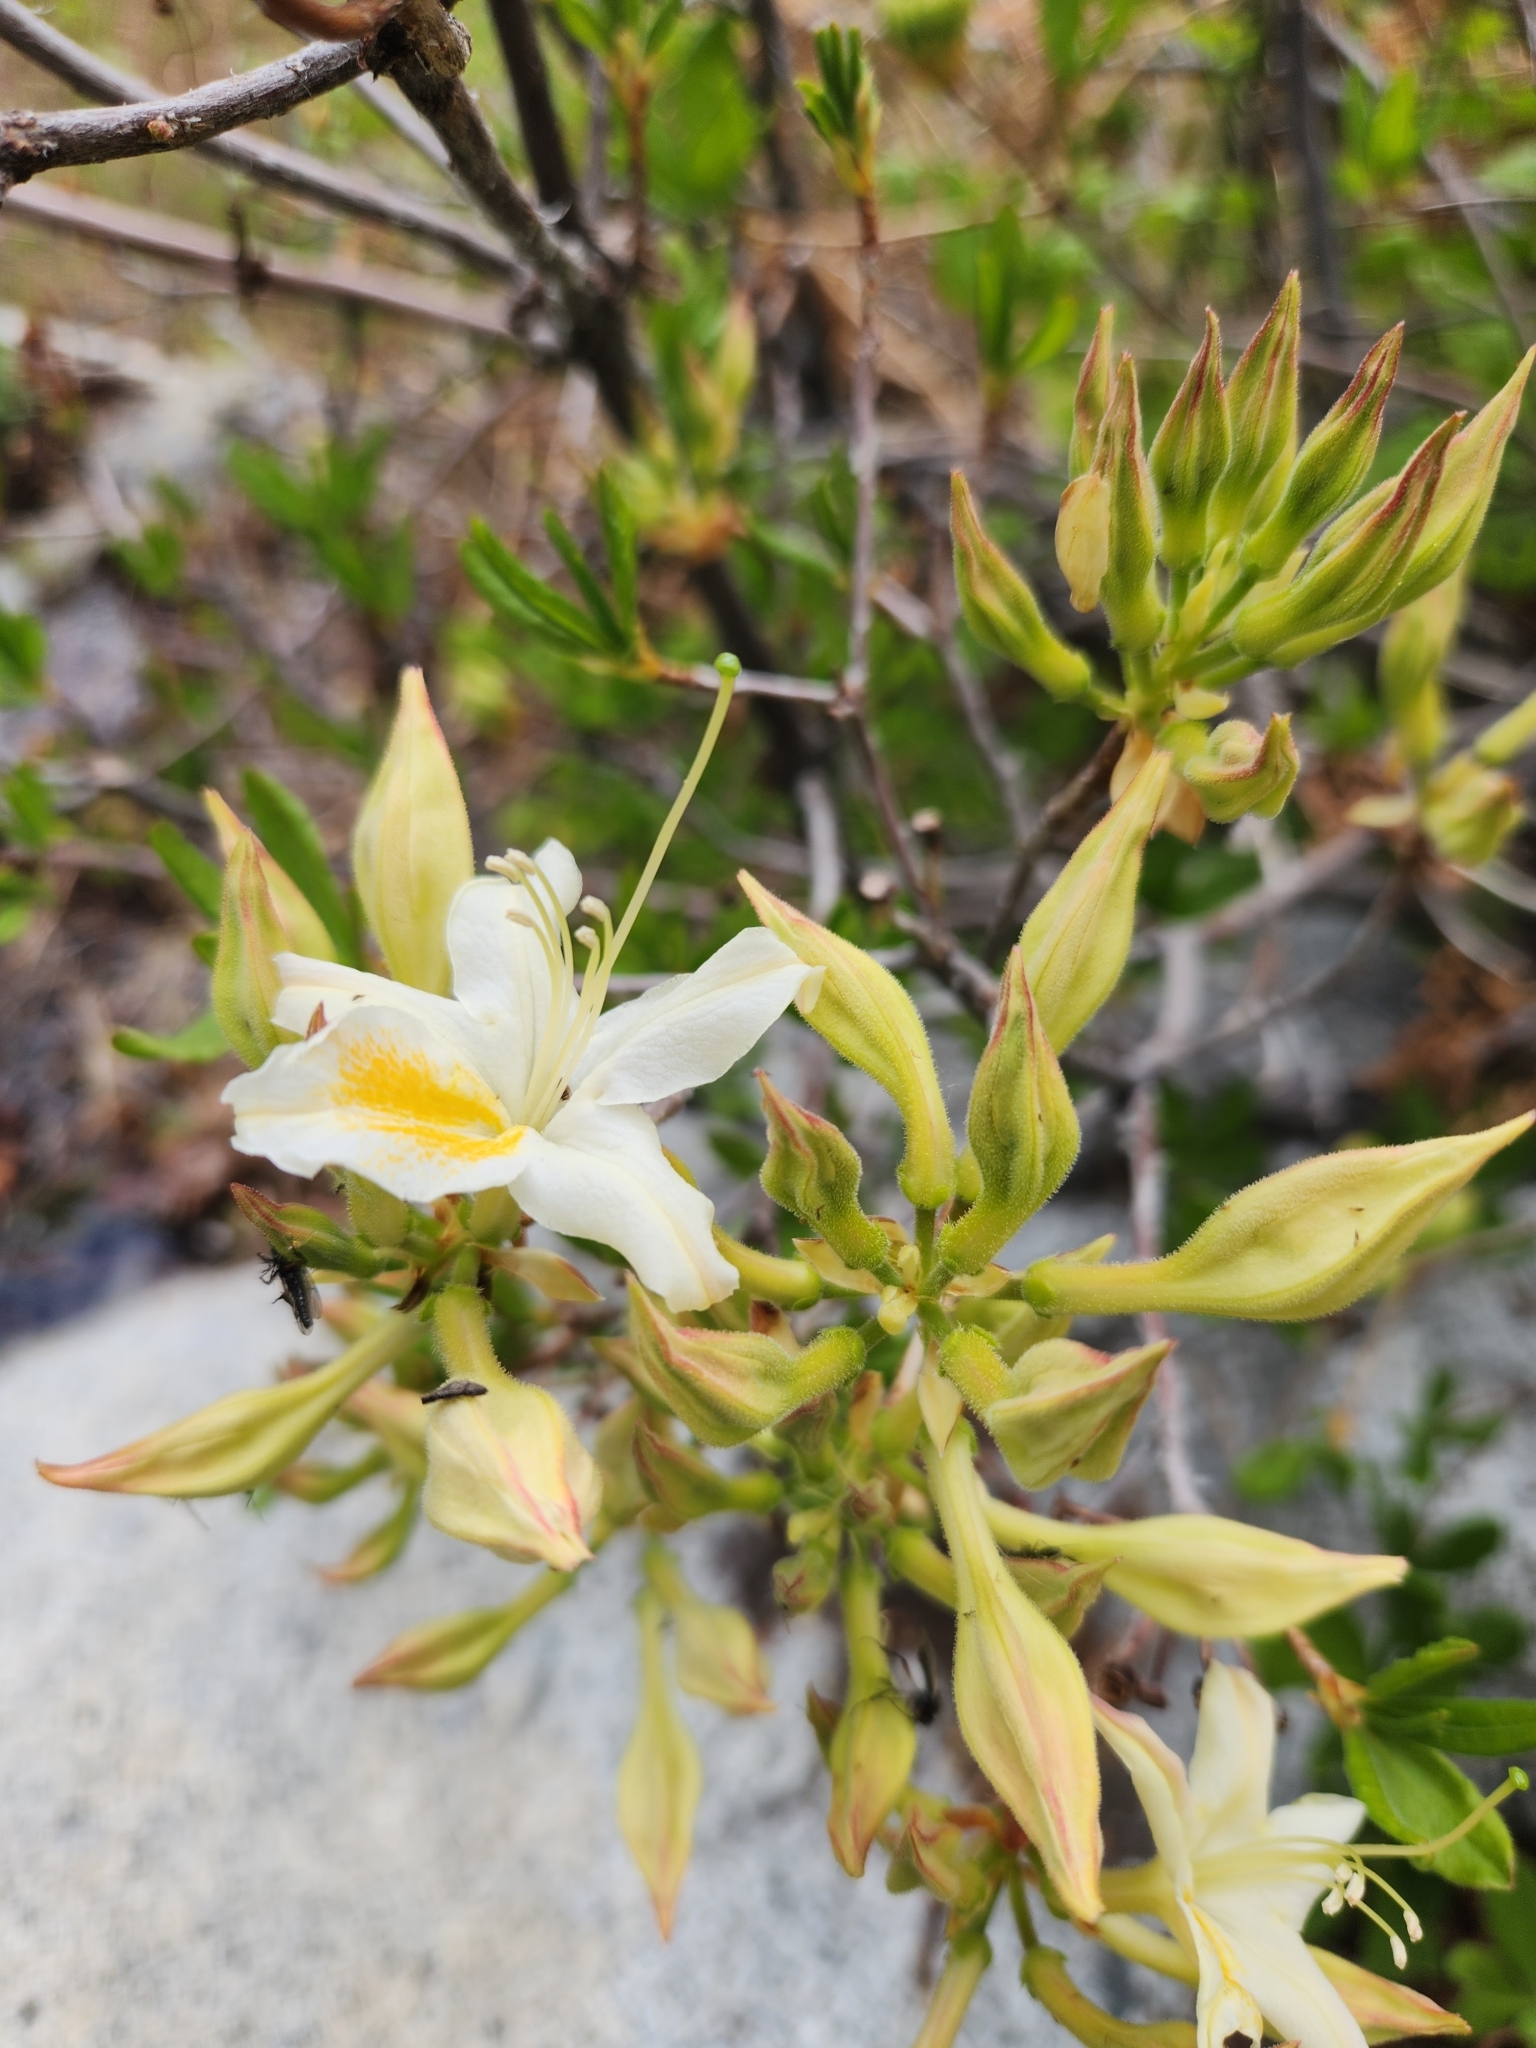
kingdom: Plantae
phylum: Tracheophyta
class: Magnoliopsida
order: Ericales
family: Ericaceae
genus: Rhododendron
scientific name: Rhododendron occidentale
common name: Western azalea
